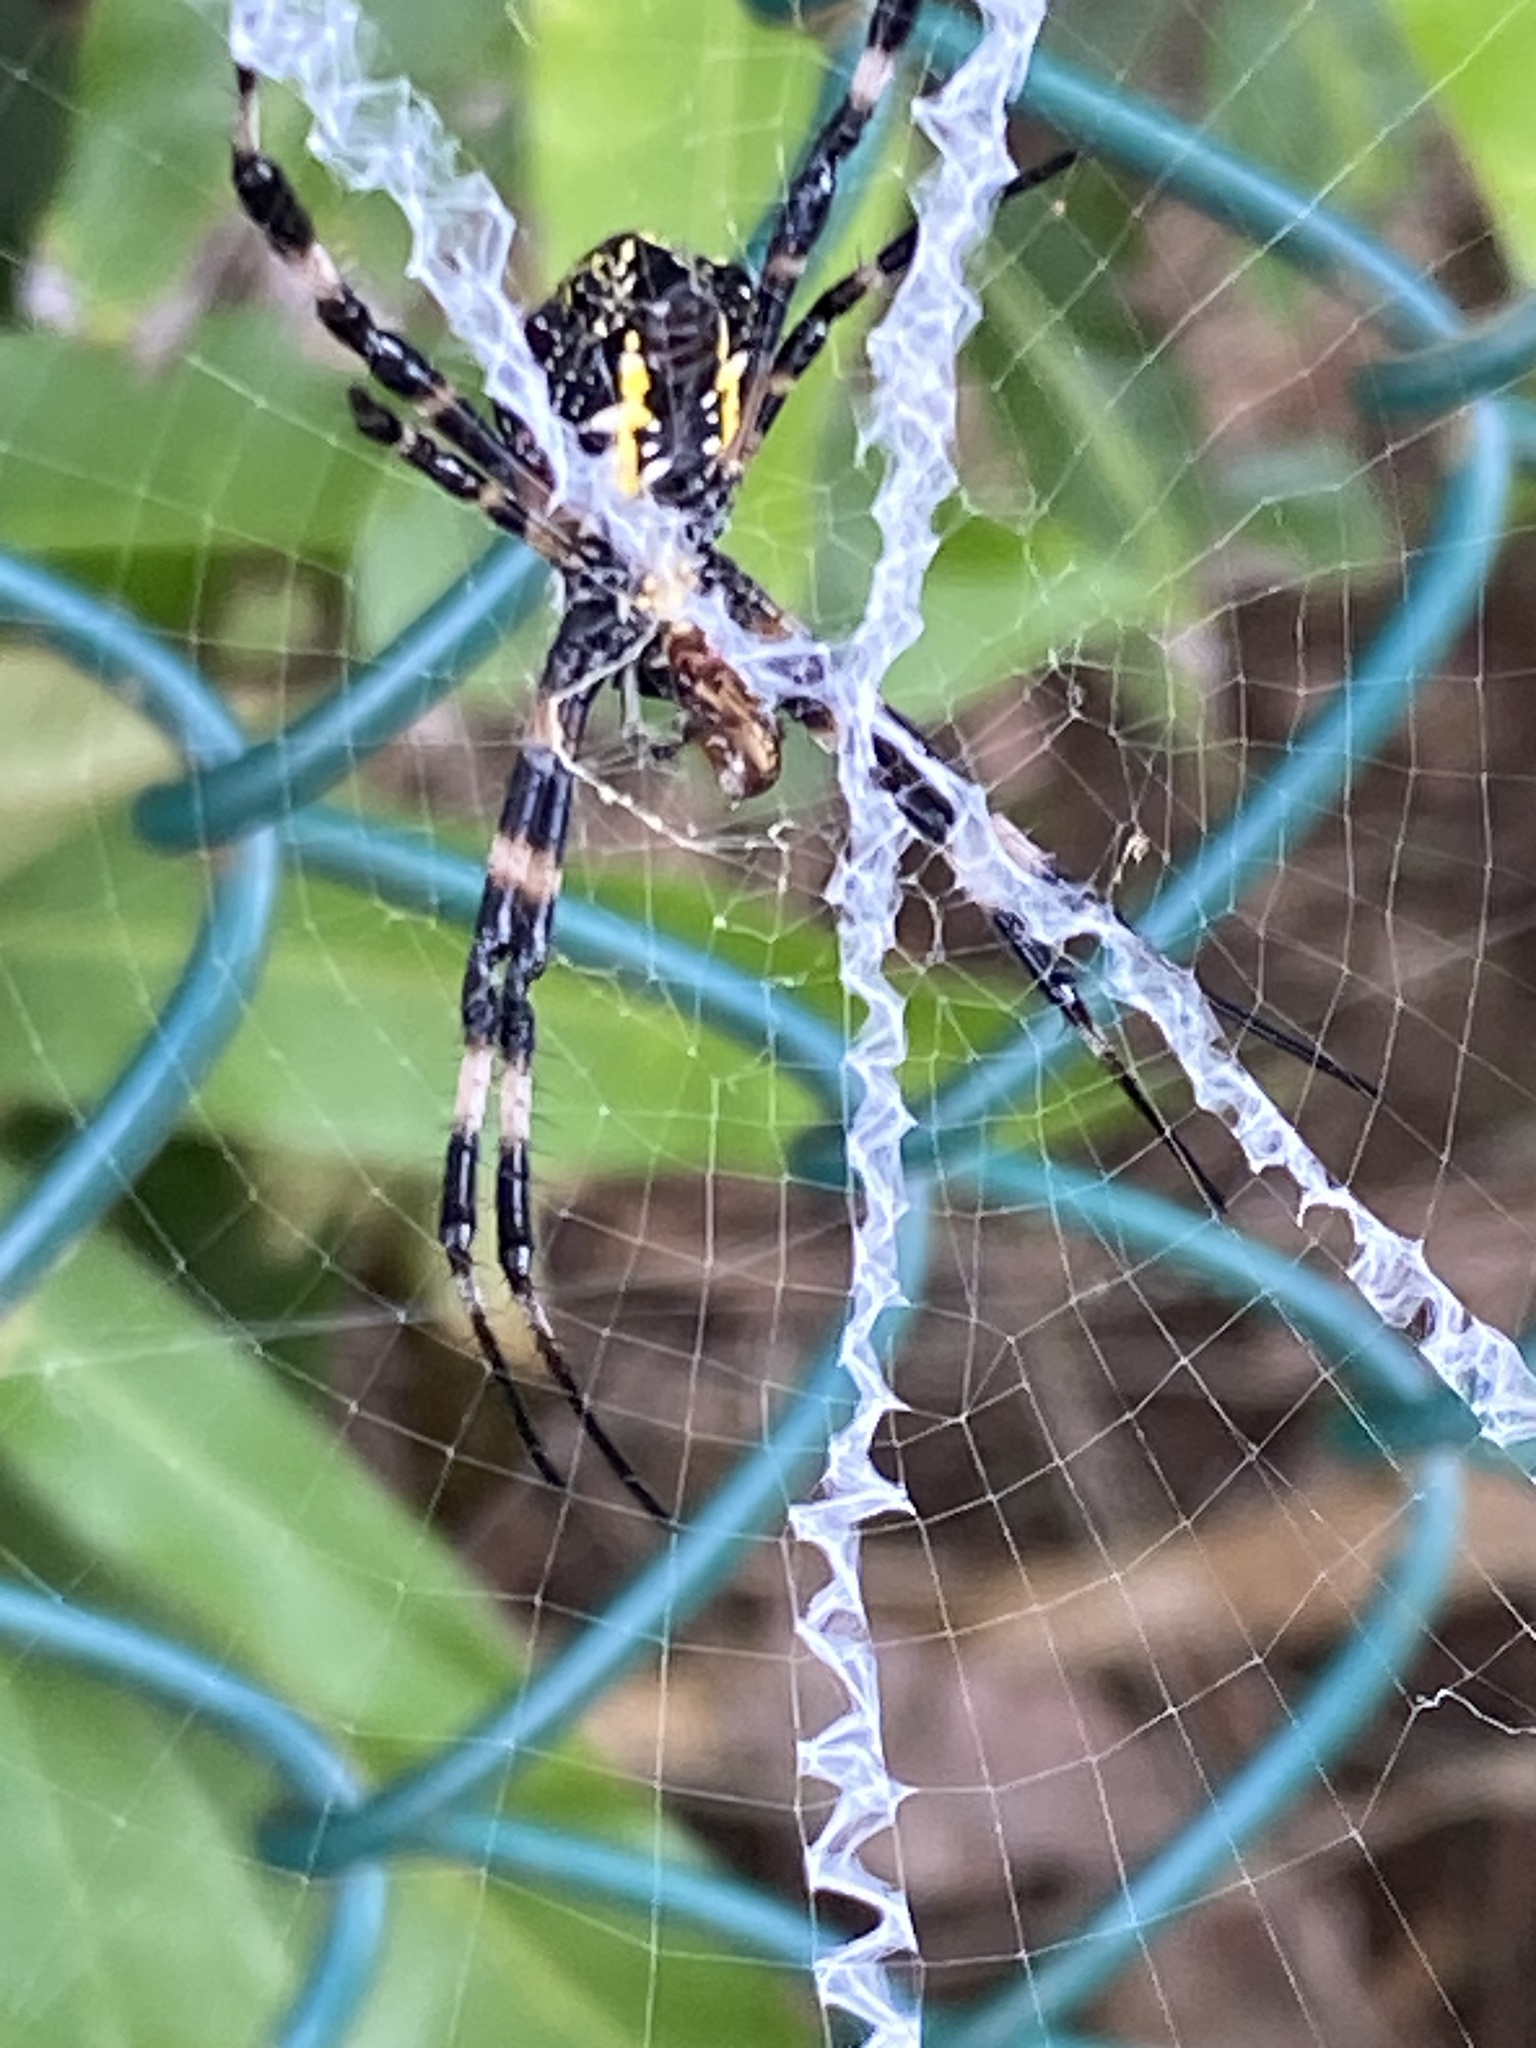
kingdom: Animalia
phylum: Arthropoda
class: Arachnida
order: Araneae
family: Araneidae
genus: Argiope
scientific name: Argiope appensa
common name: Garden spider
